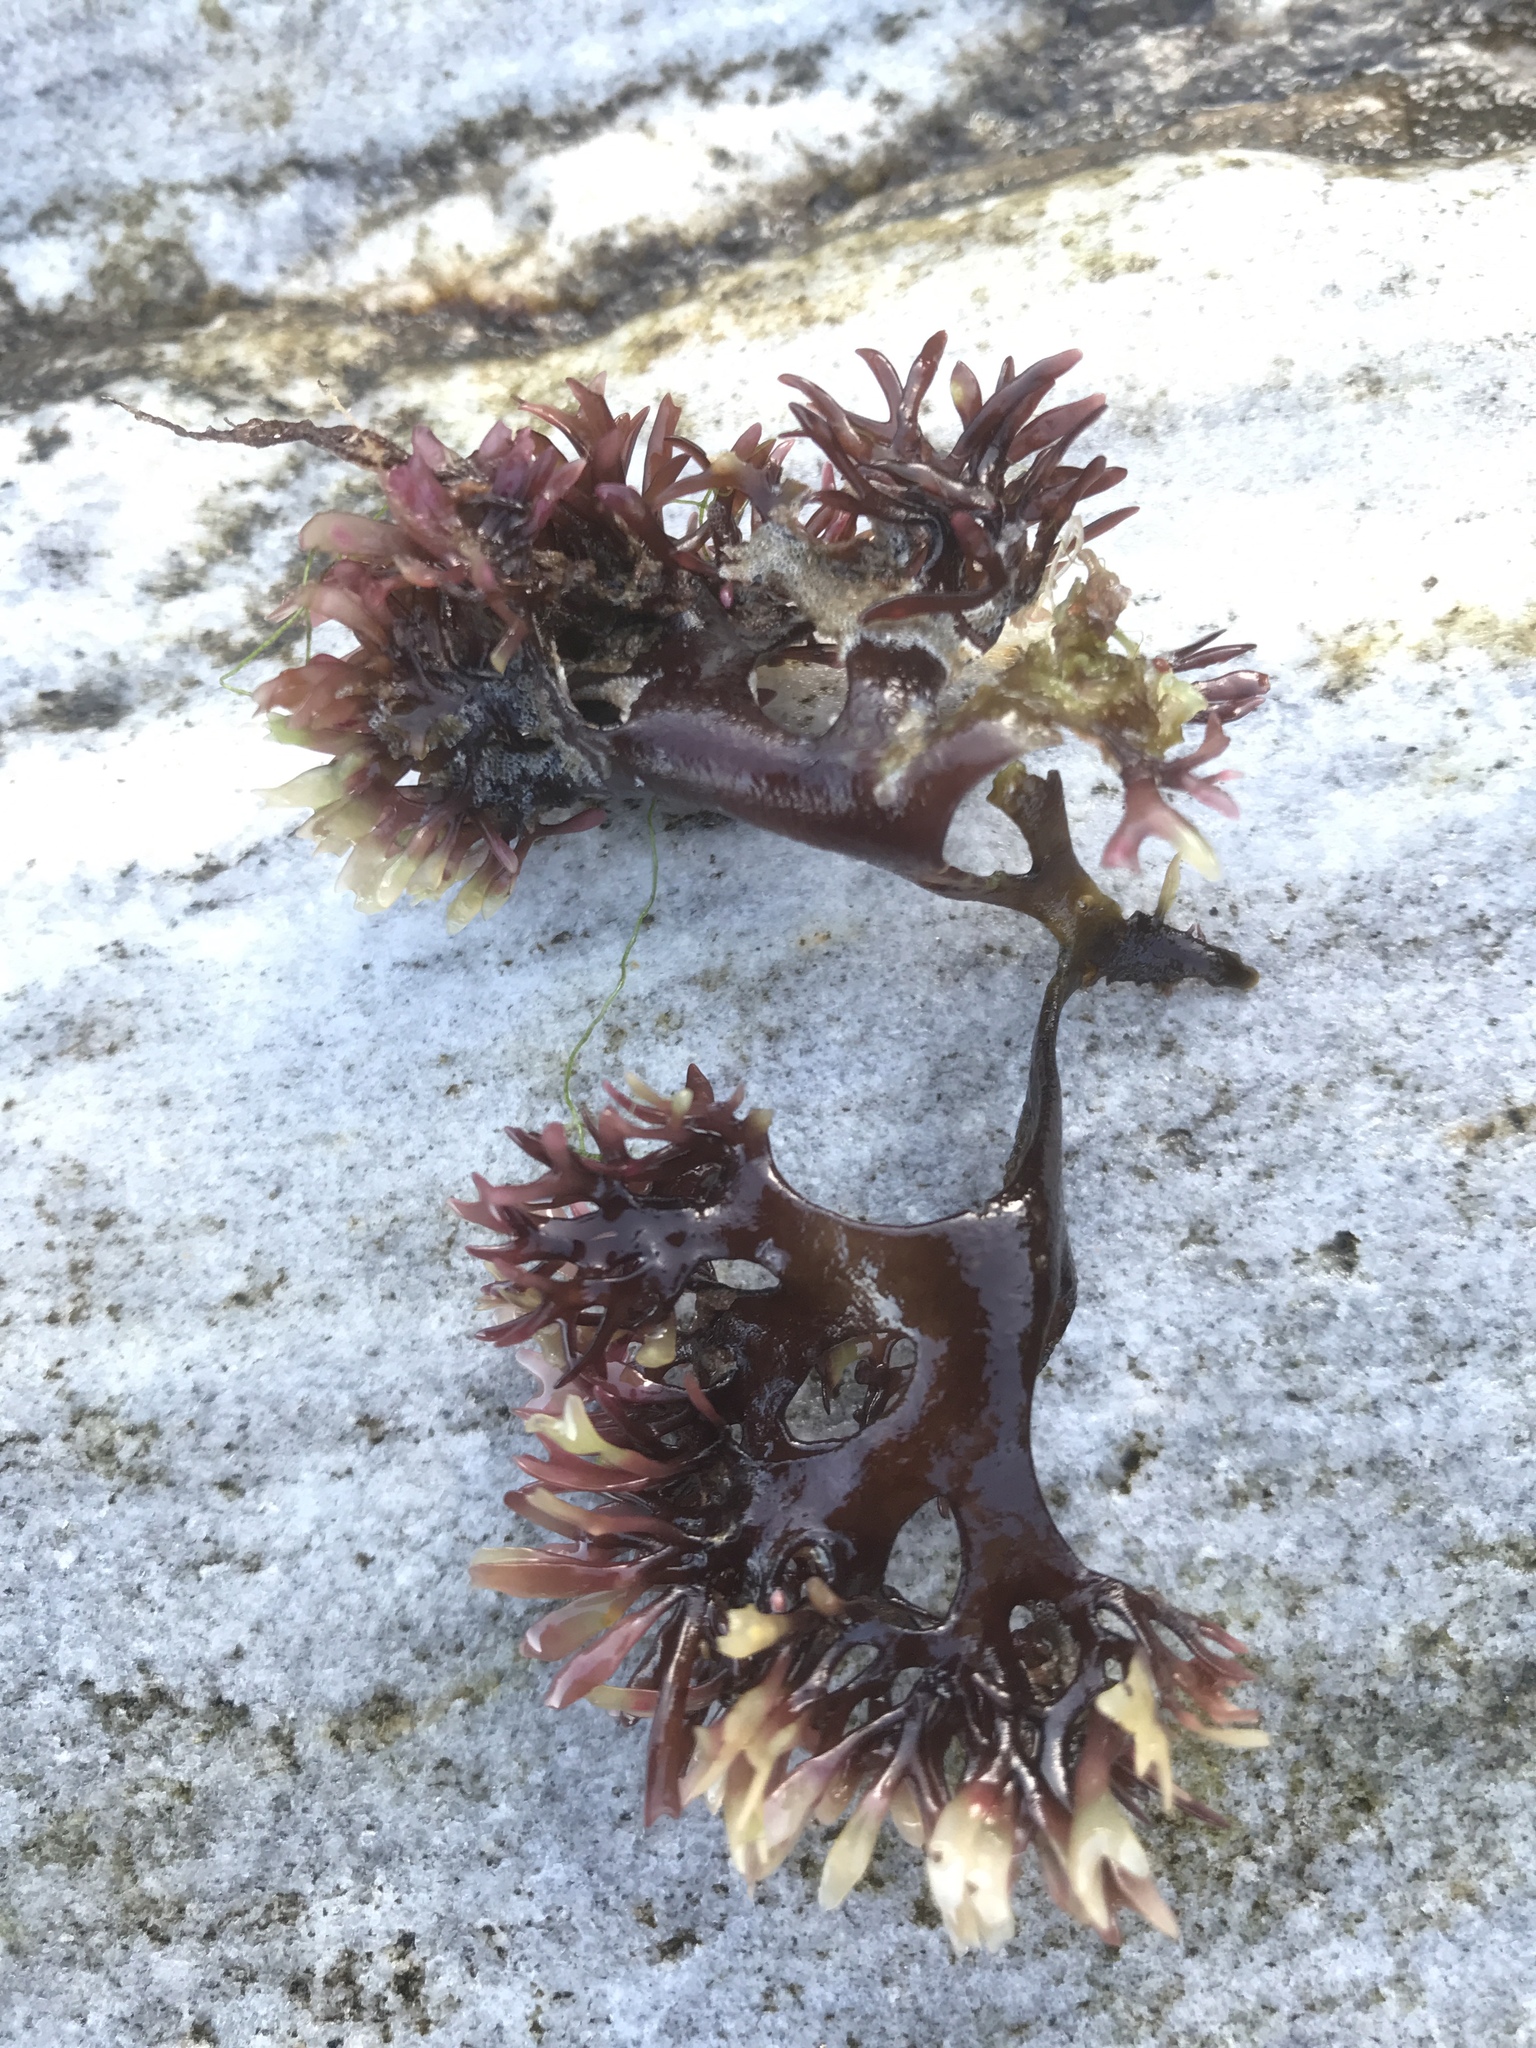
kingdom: Plantae
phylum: Rhodophyta
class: Florideophyceae
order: Gigartinales
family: Gigartinaceae
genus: Chondrus
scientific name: Chondrus crispus
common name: Carrageen
